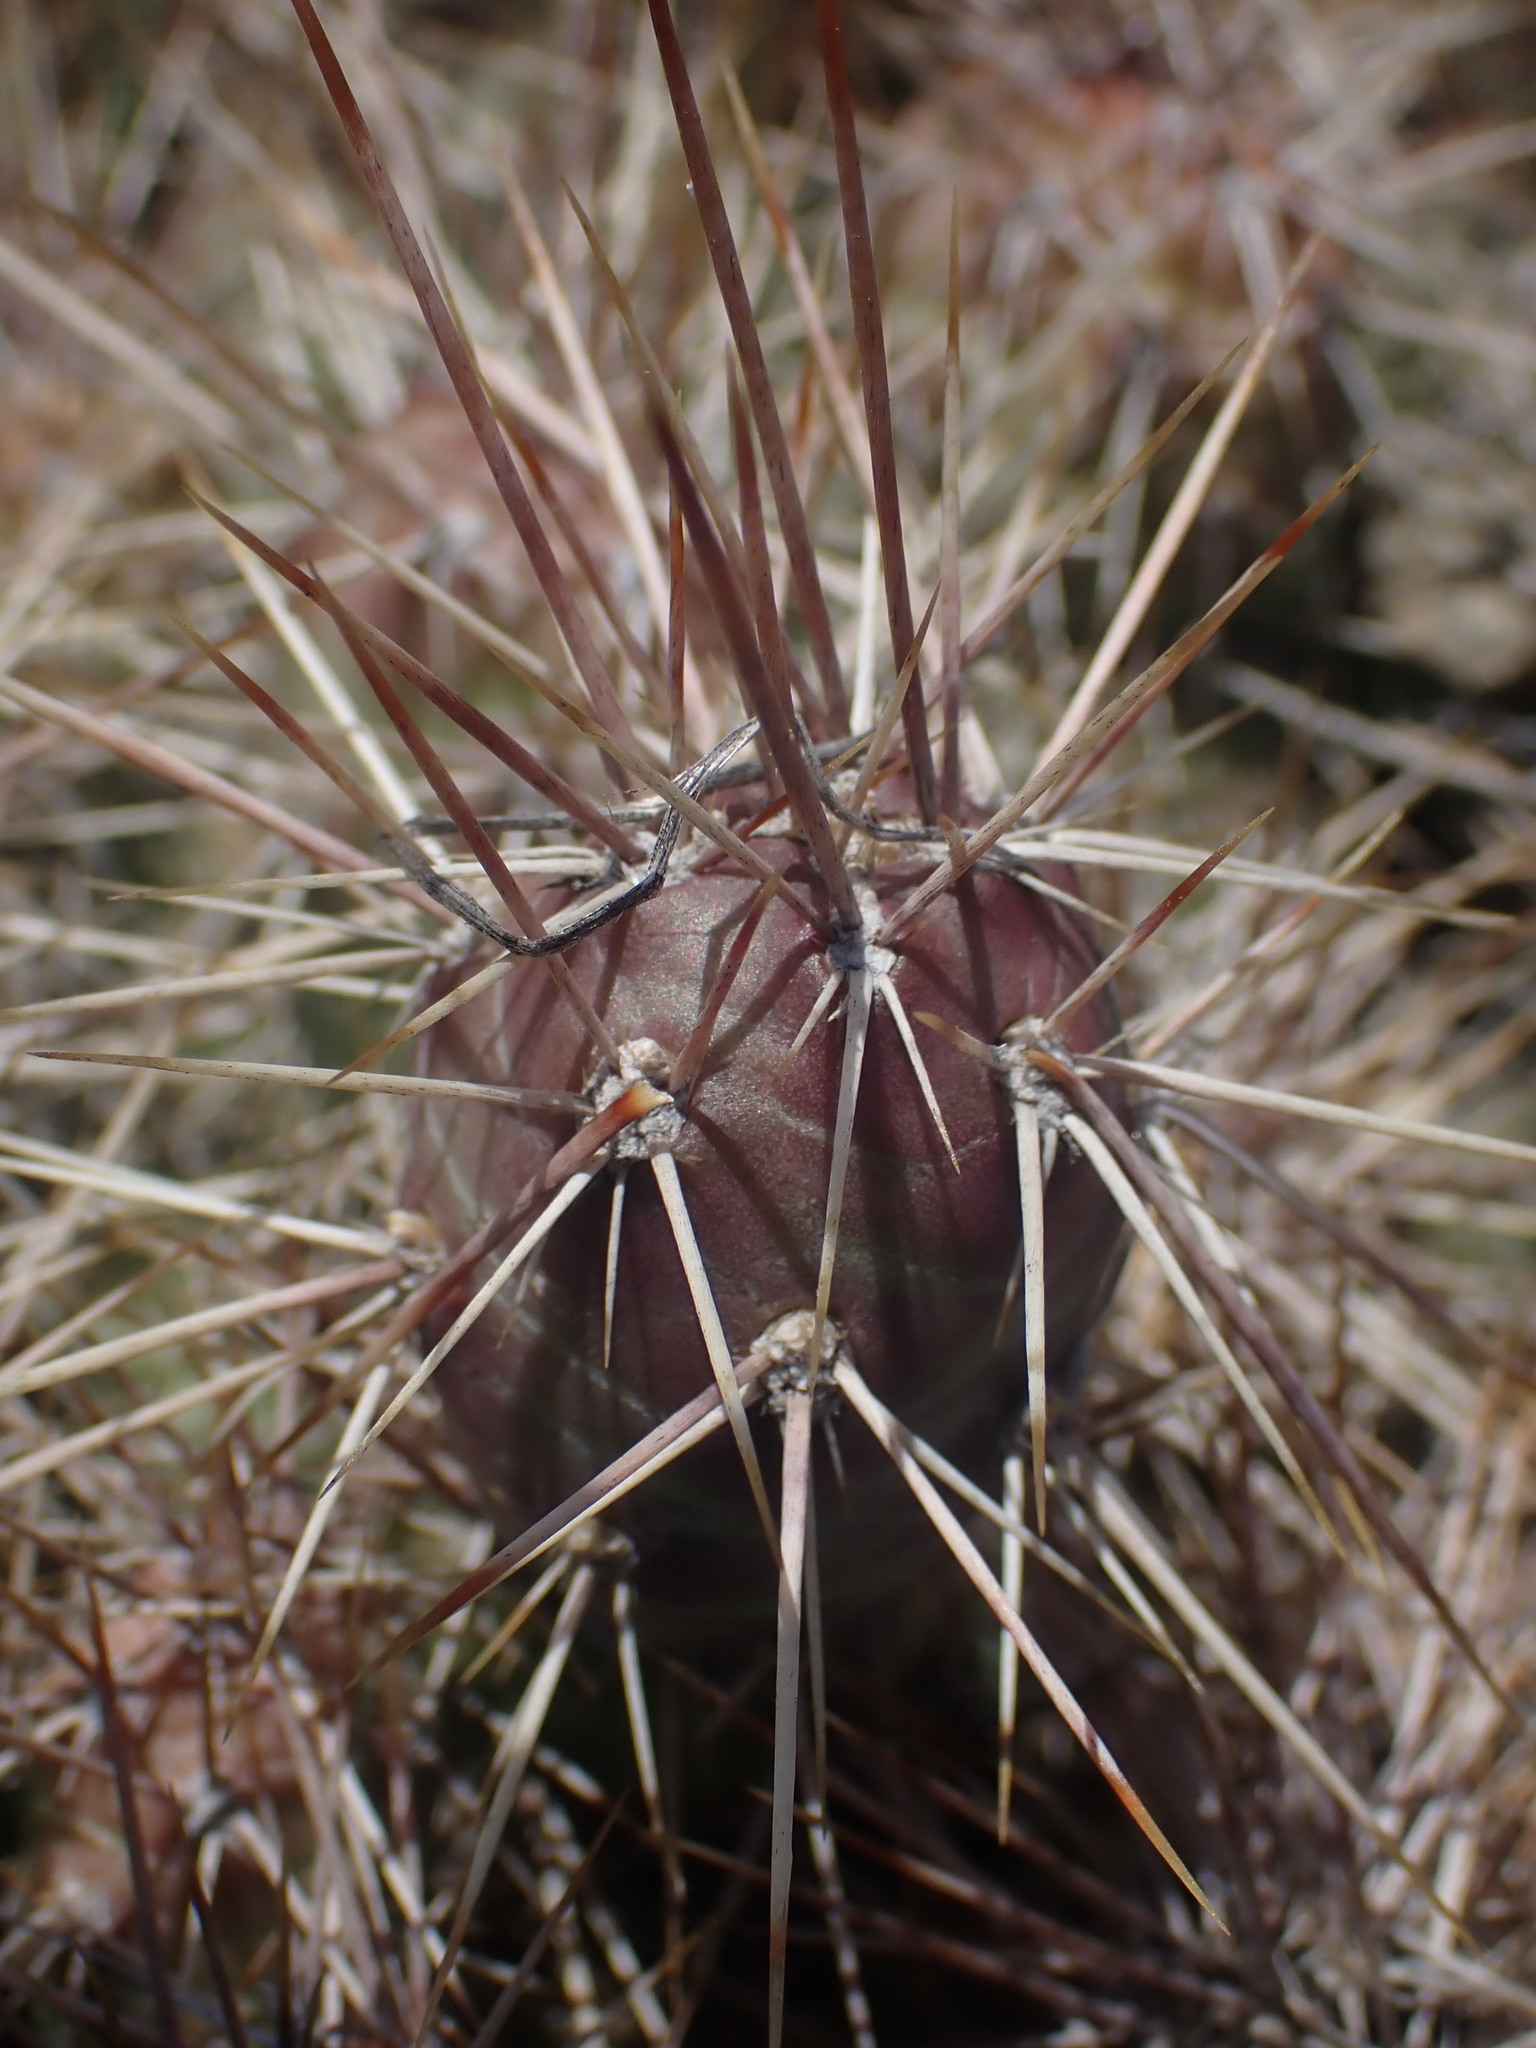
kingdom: Plantae
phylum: Tracheophyta
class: Magnoliopsida
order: Caryophyllales
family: Cactaceae
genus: Opuntia
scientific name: Opuntia fragilis
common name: Brittle cactus
